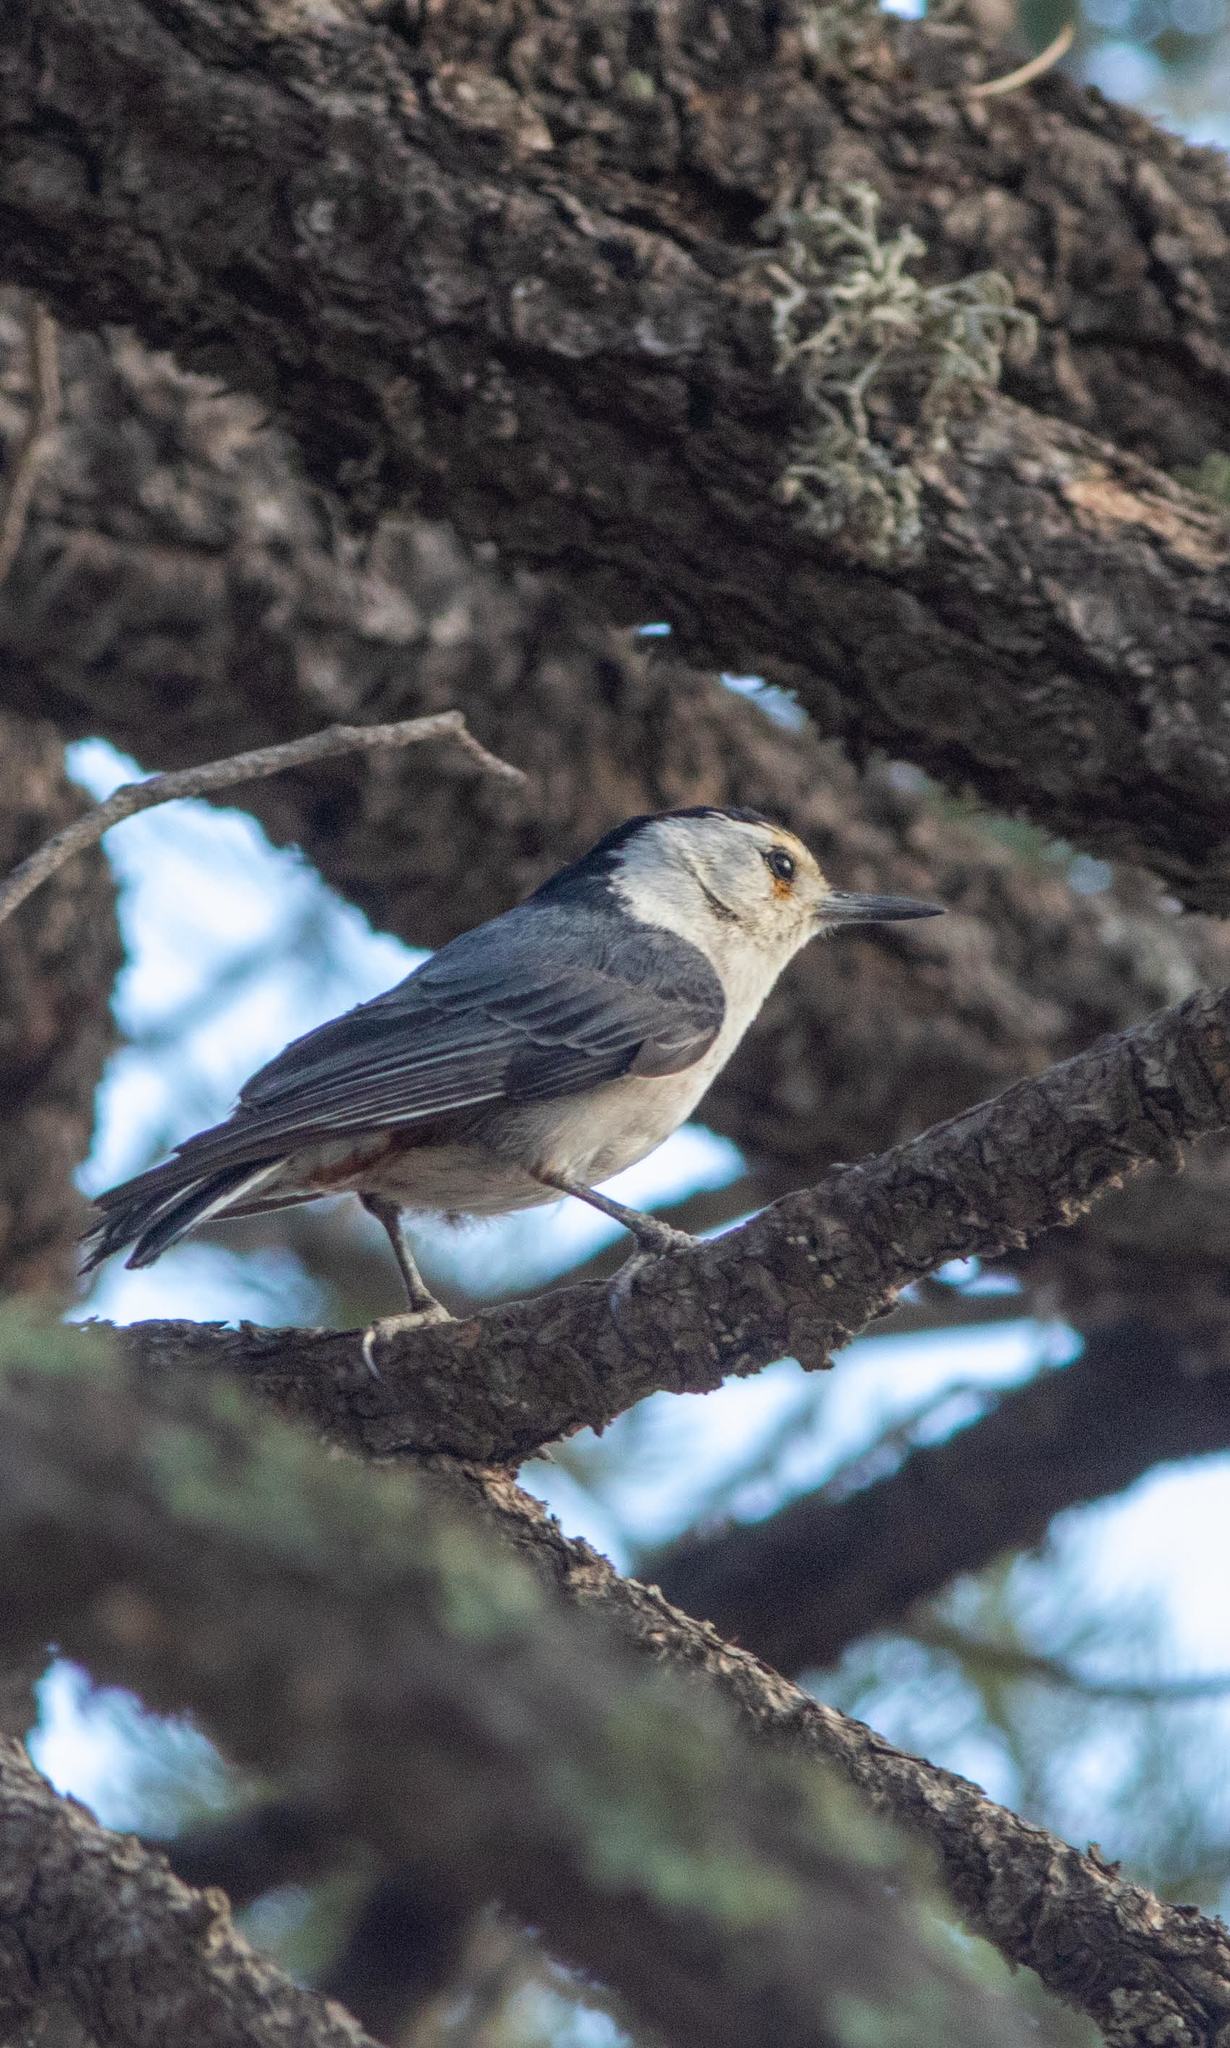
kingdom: Animalia
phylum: Chordata
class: Aves
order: Passeriformes
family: Sittidae
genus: Sitta
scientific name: Sitta carolinensis
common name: White-breasted nuthatch
